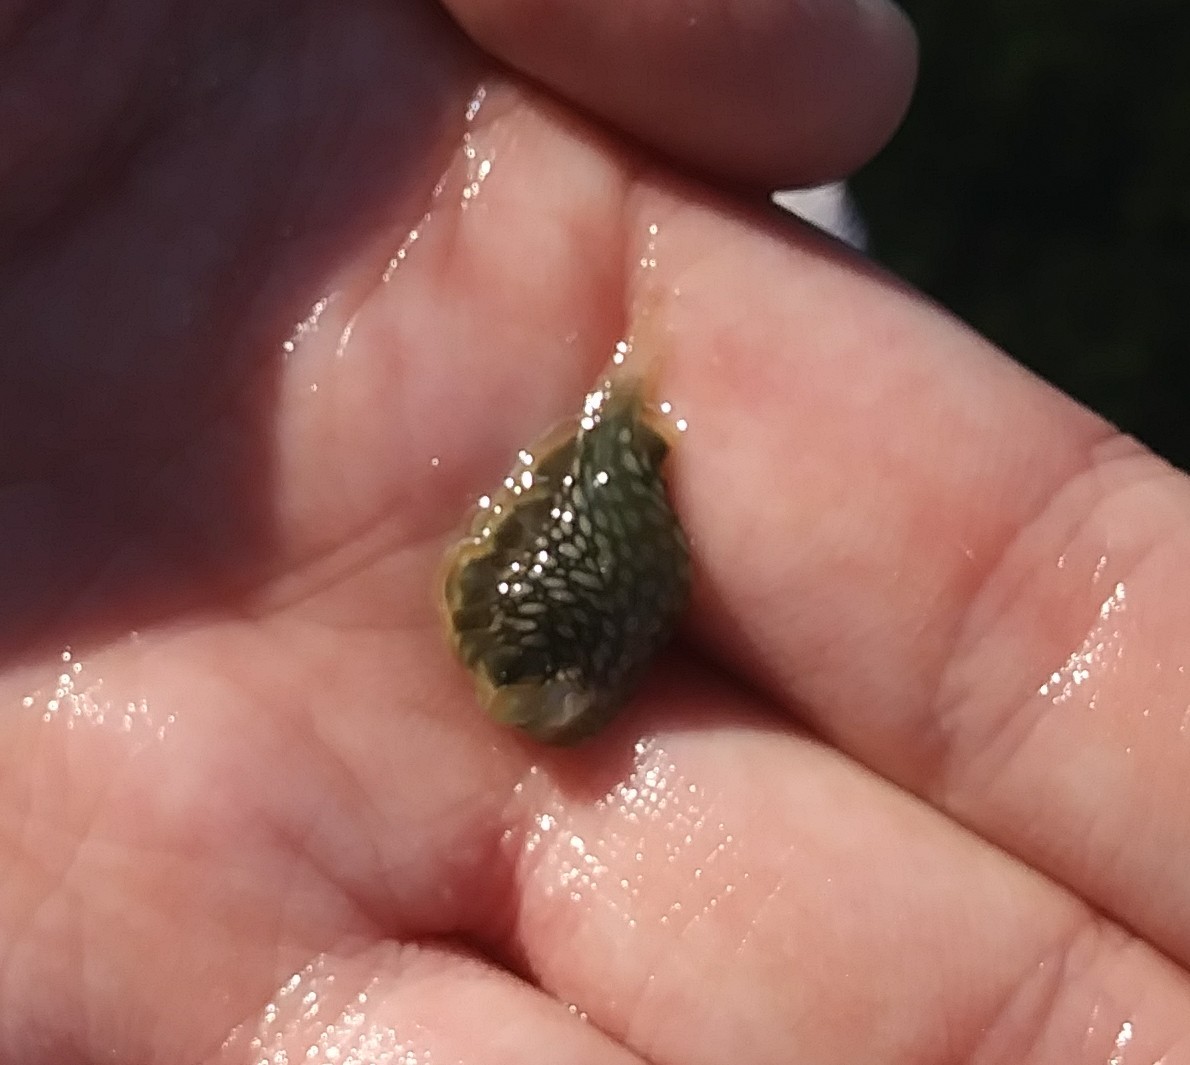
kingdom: Animalia
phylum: Mollusca
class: Gastropoda
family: Plakobranchidae
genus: Elysia
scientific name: Elysia crispata
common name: Lettuce slug
